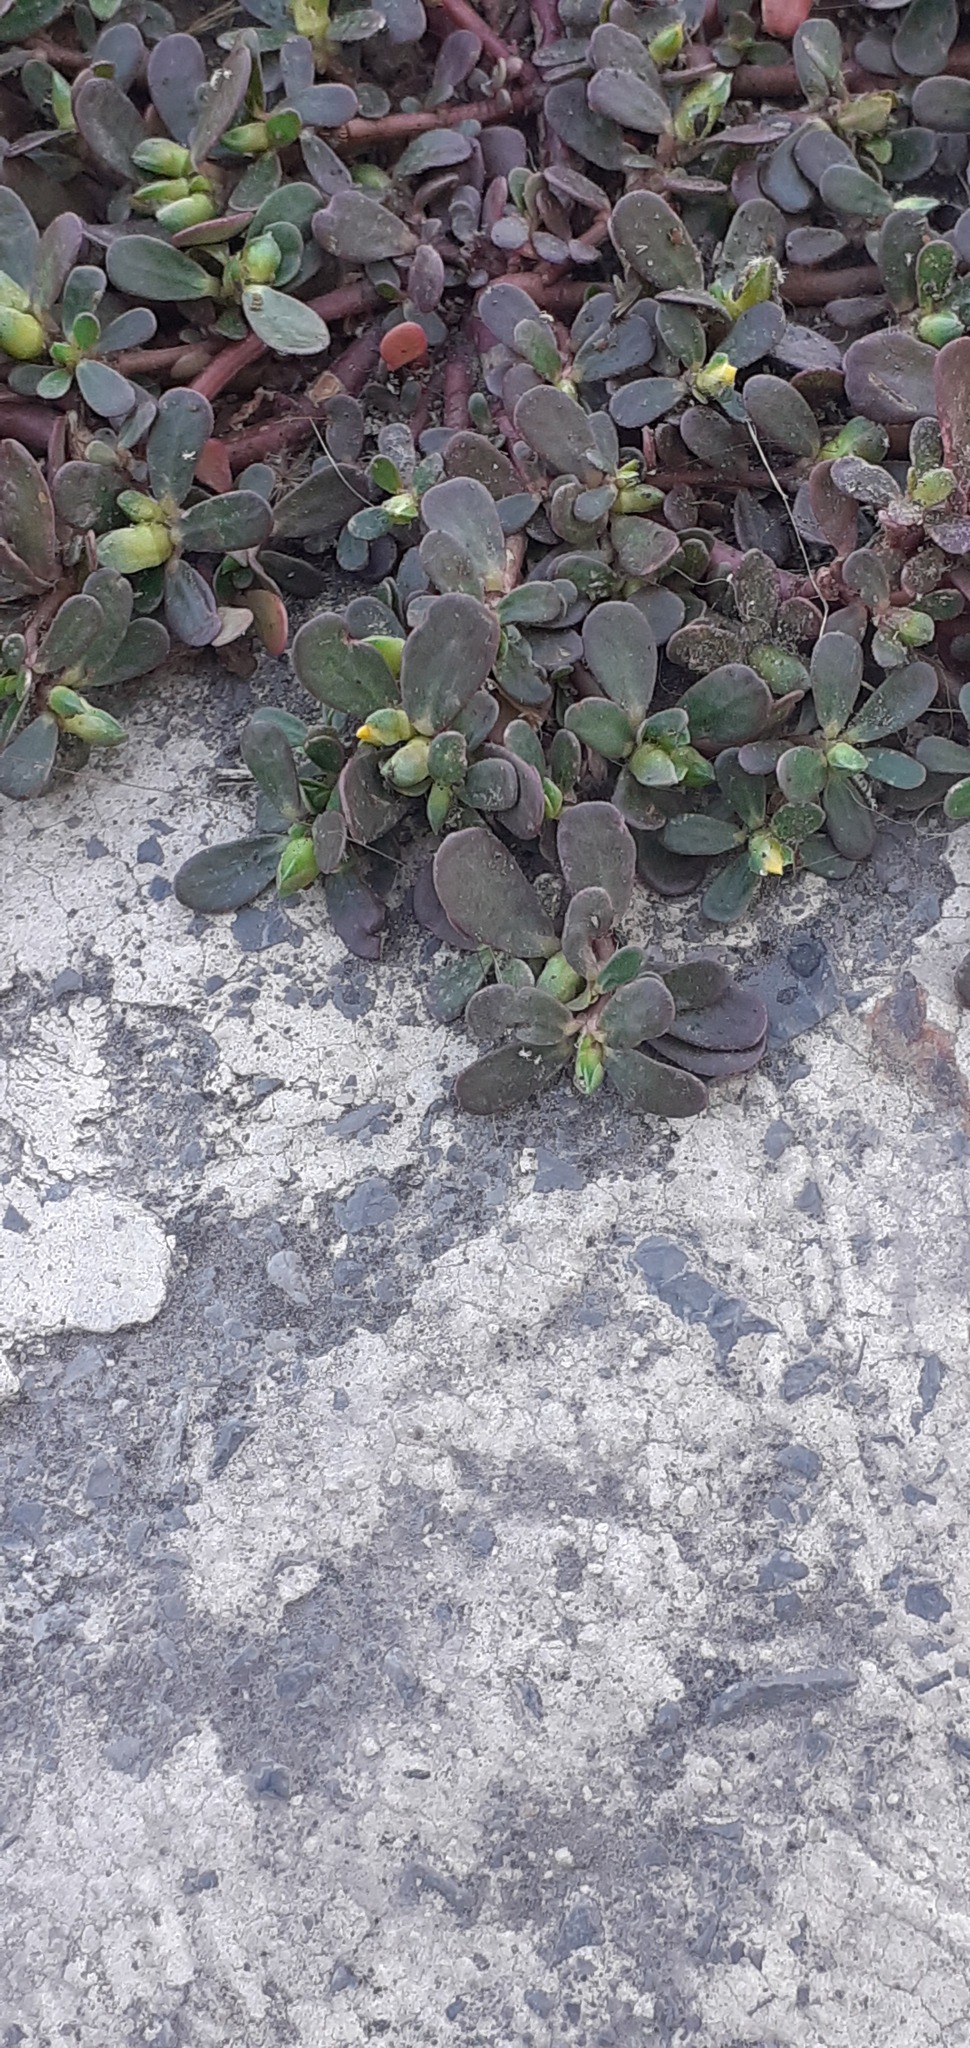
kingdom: Plantae
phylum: Tracheophyta
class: Magnoliopsida
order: Caryophyllales
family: Portulacaceae
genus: Portulaca
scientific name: Portulaca oleracea
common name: Common purslane
